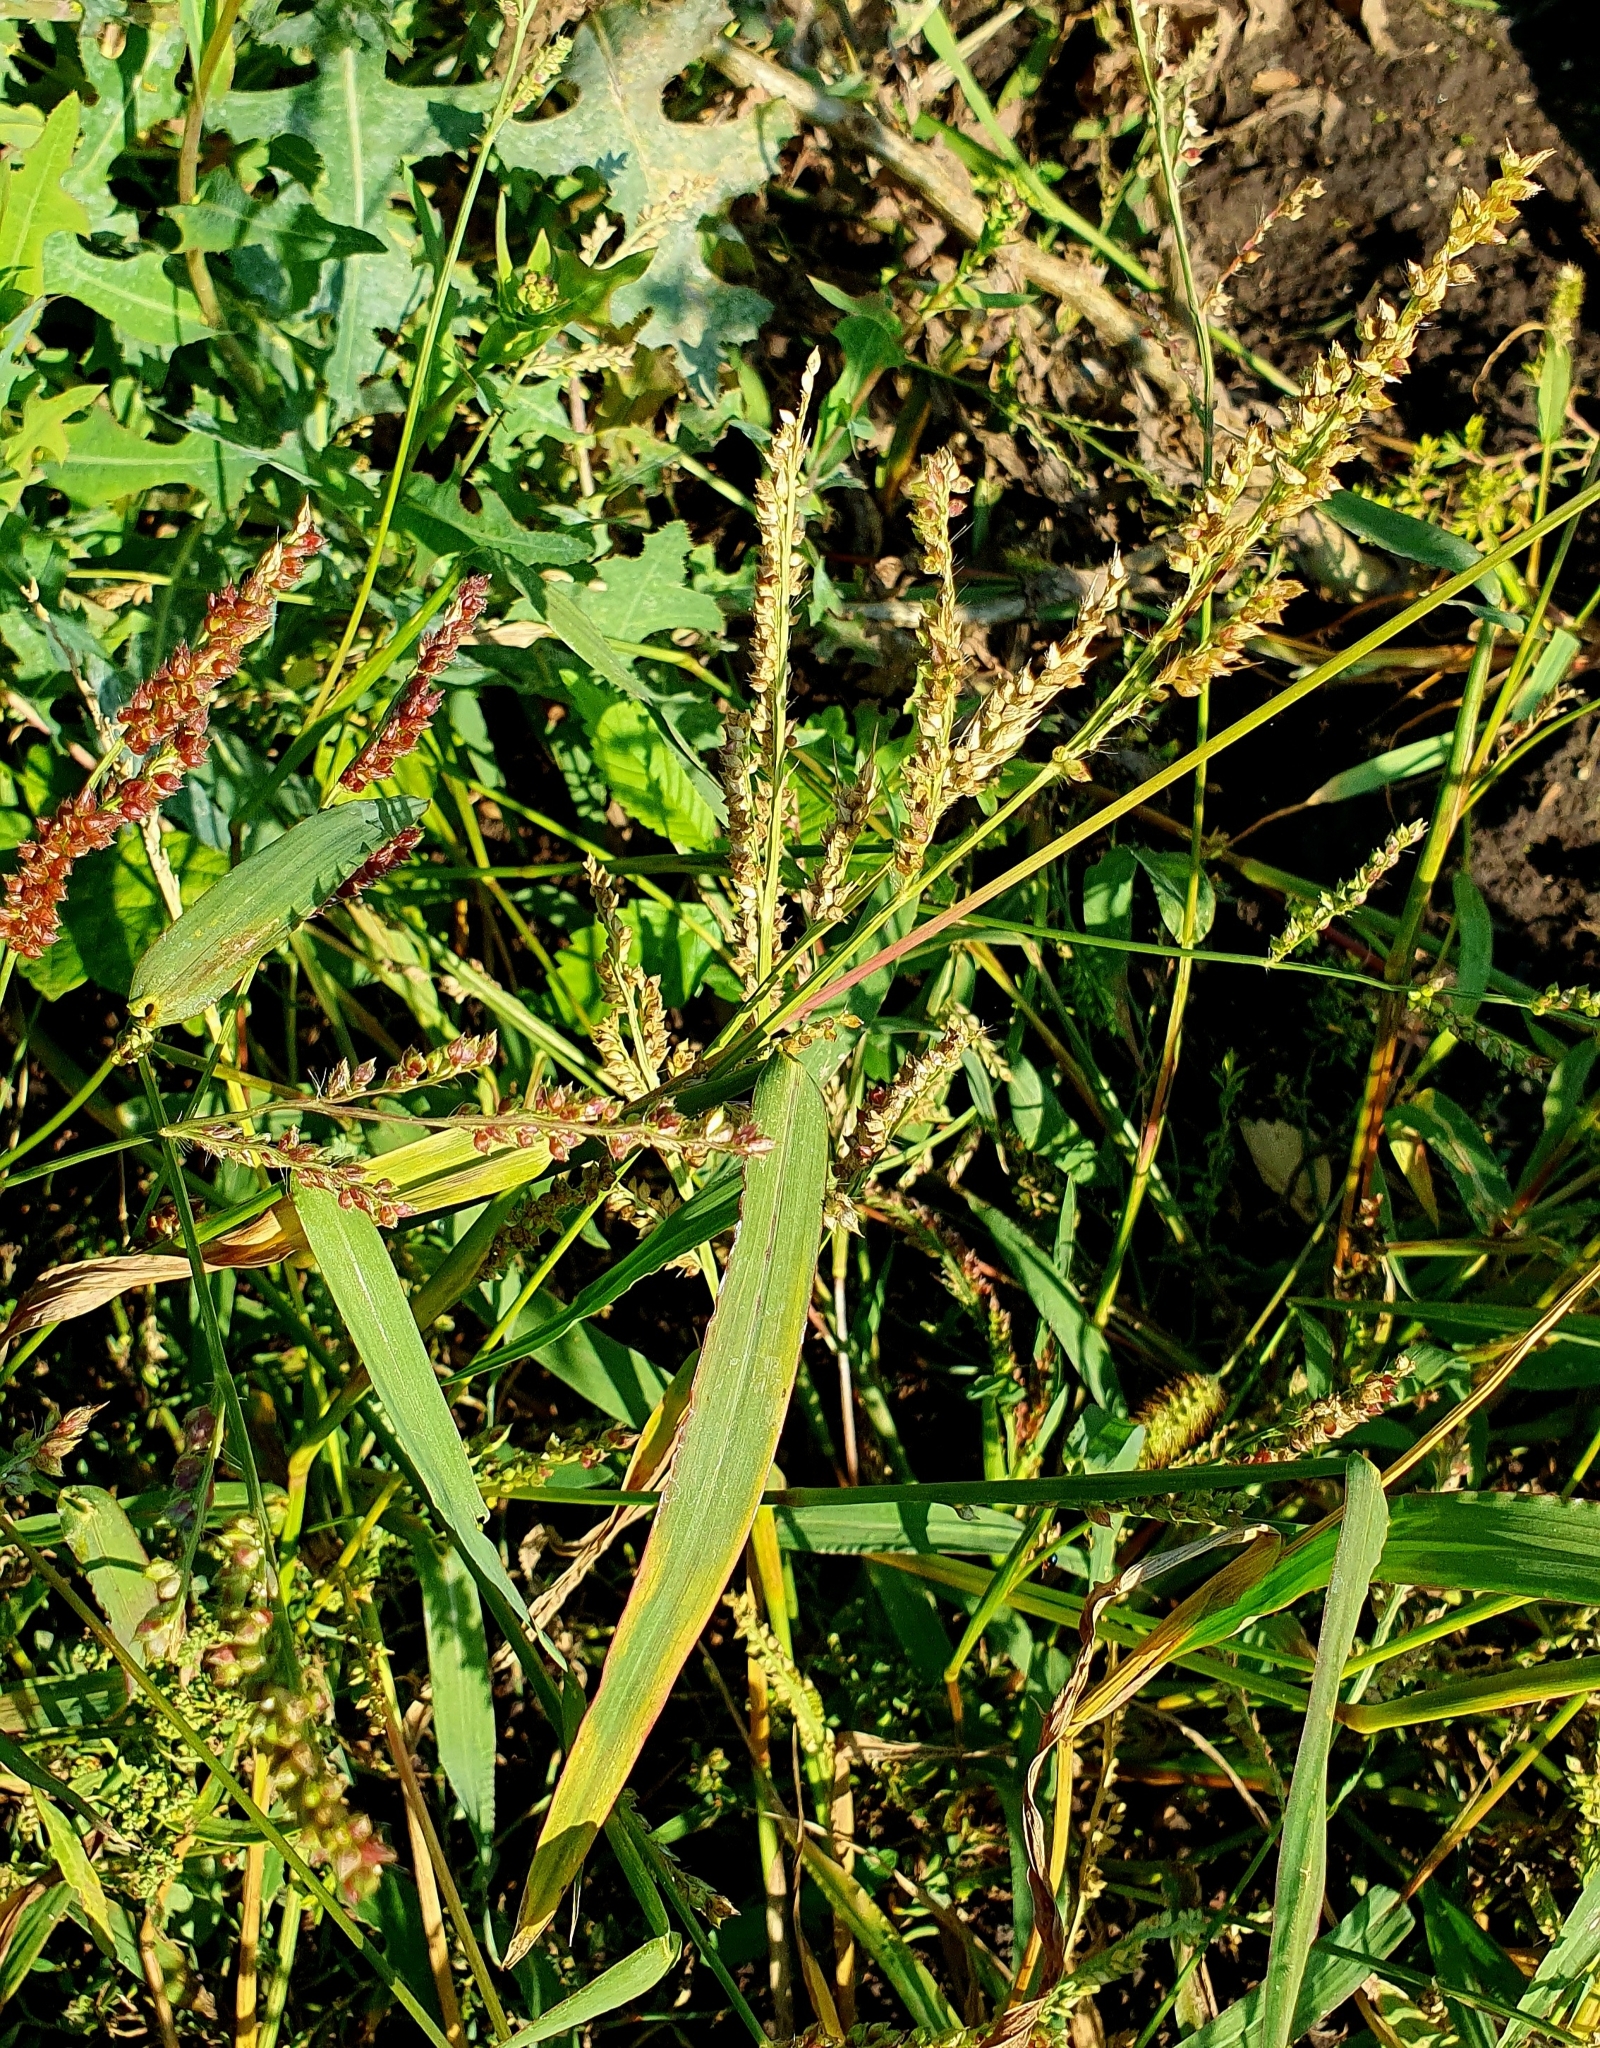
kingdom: Plantae
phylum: Tracheophyta
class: Liliopsida
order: Poales
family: Poaceae
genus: Echinochloa
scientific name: Echinochloa crus-galli
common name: Cockspur
